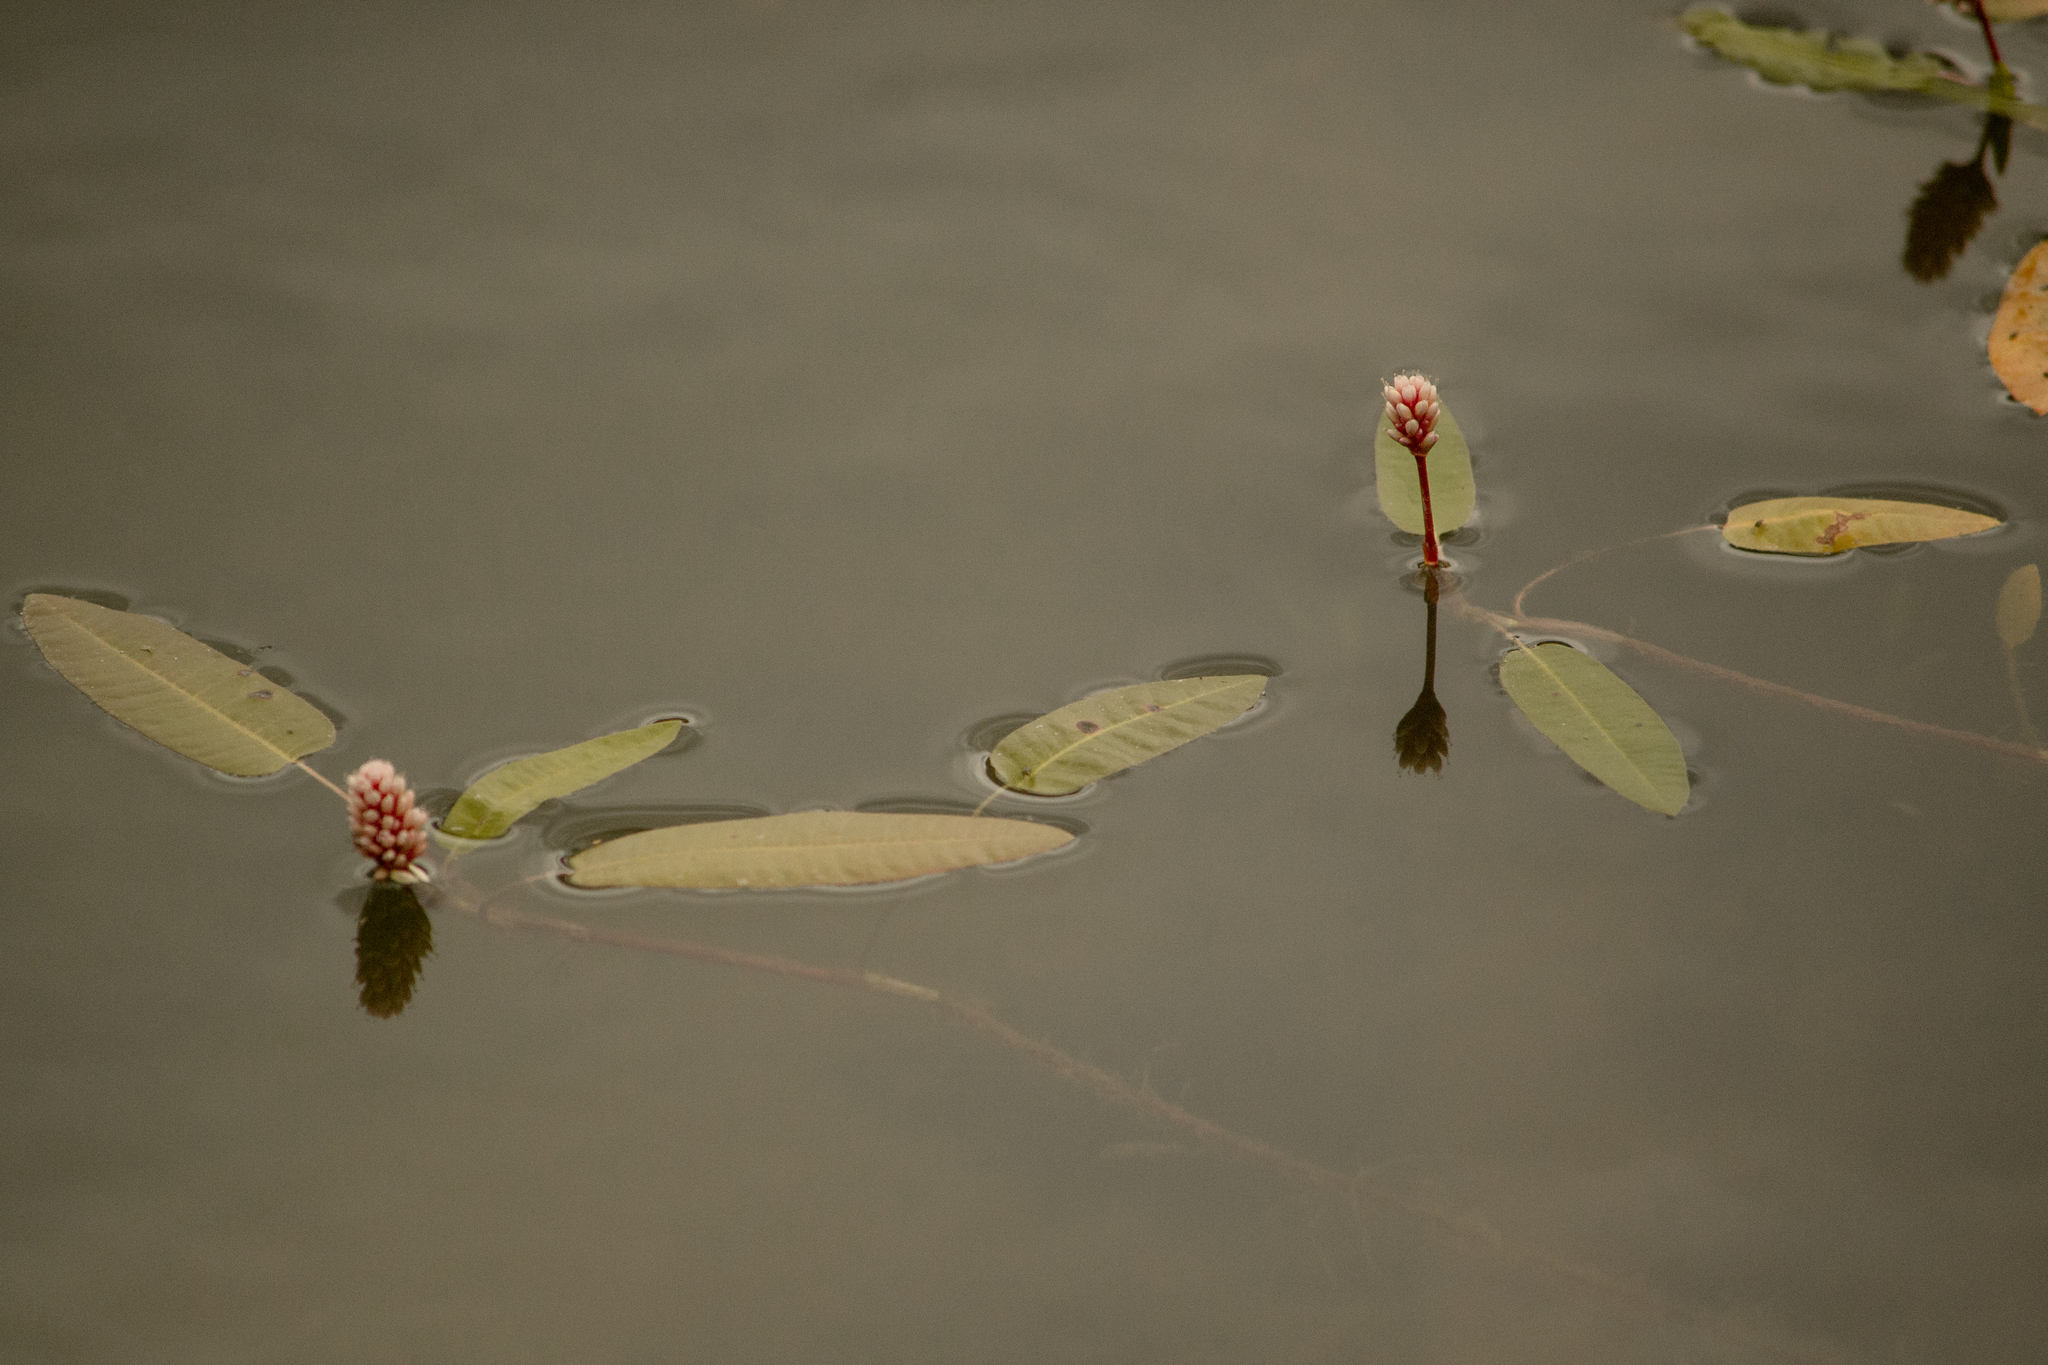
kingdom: Plantae
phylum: Tracheophyta
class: Magnoliopsida
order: Caryophyllales
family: Polygonaceae
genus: Persicaria
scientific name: Persicaria amphibia
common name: Amphibious bistort
